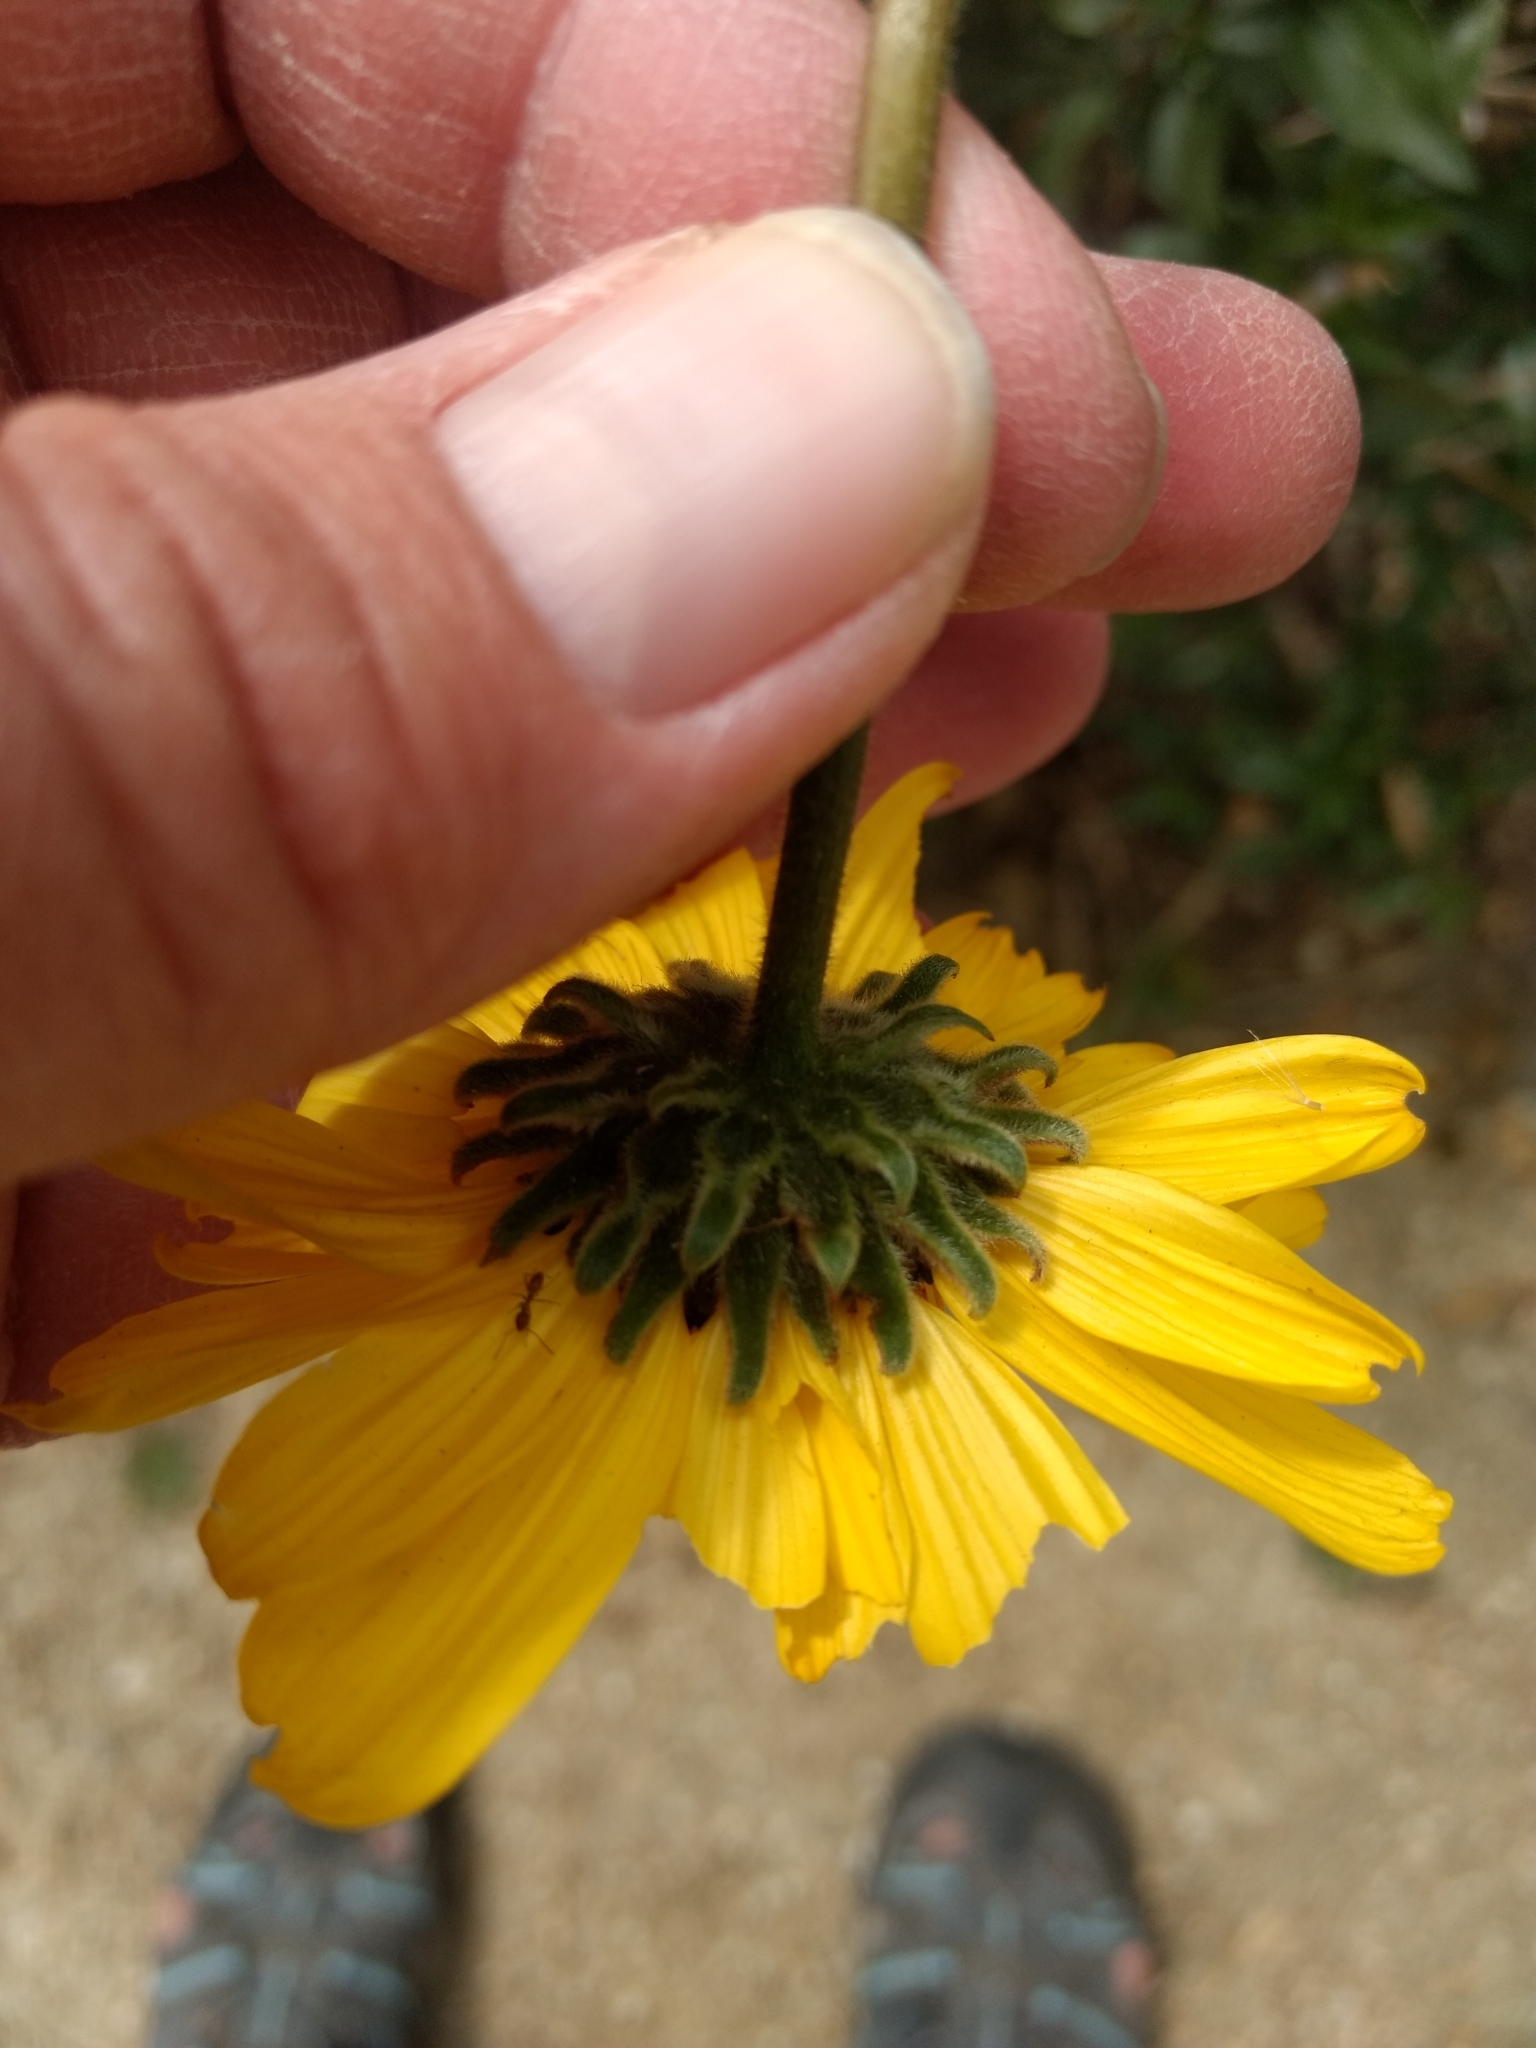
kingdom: Plantae
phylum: Tracheophyta
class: Magnoliopsida
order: Asterales
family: Asteraceae
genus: Encelia
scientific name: Encelia californica
